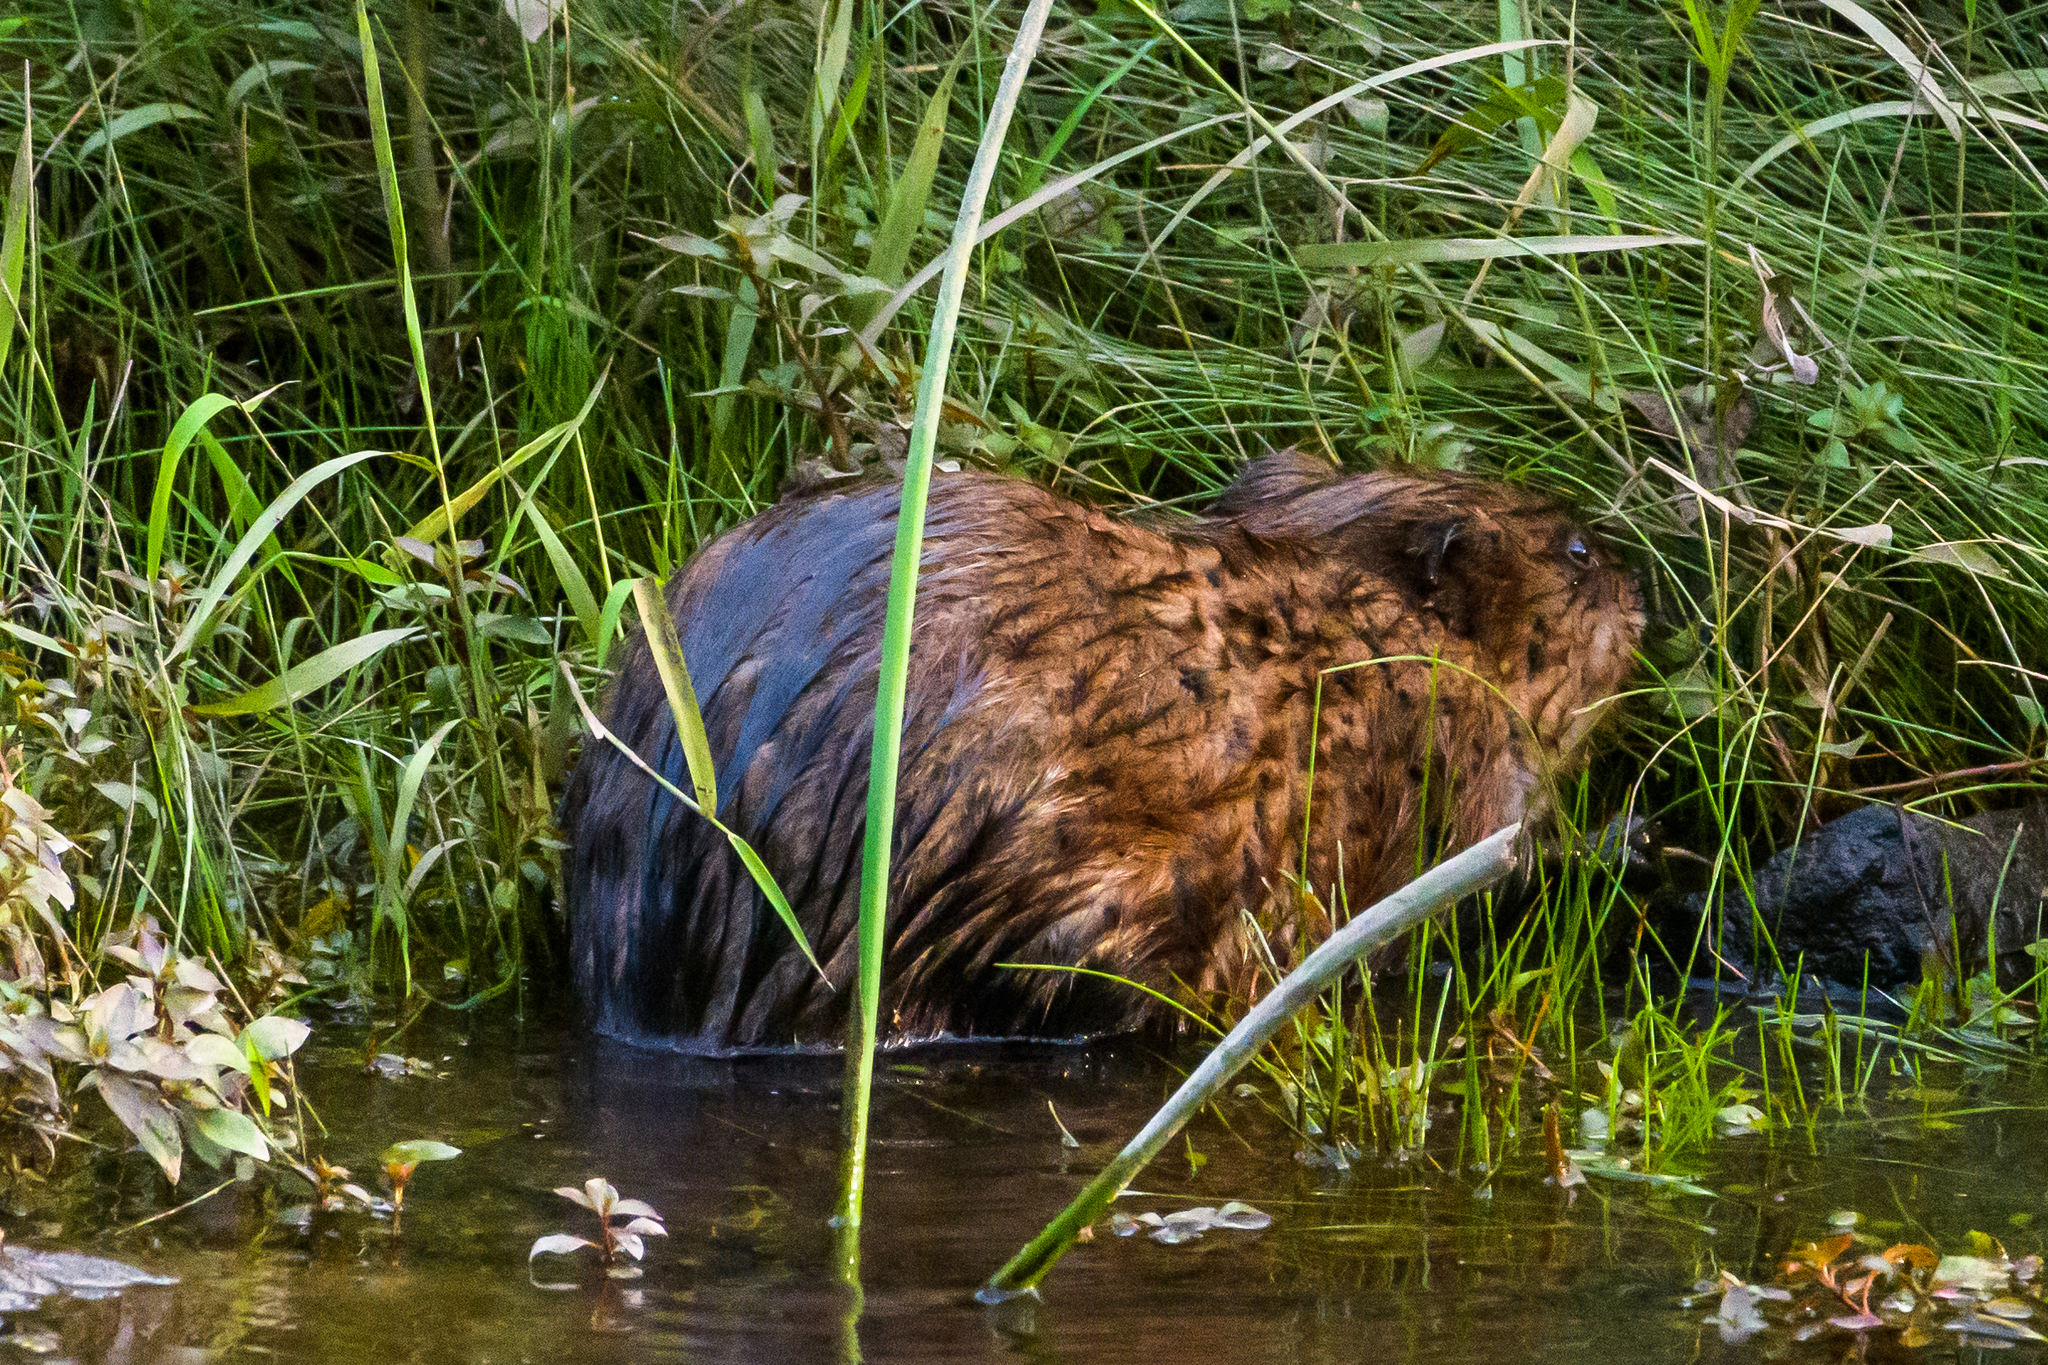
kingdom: Animalia
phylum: Chordata
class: Mammalia
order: Rodentia
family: Cricetidae
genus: Ondatra
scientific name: Ondatra zibethicus
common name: Muskrat
